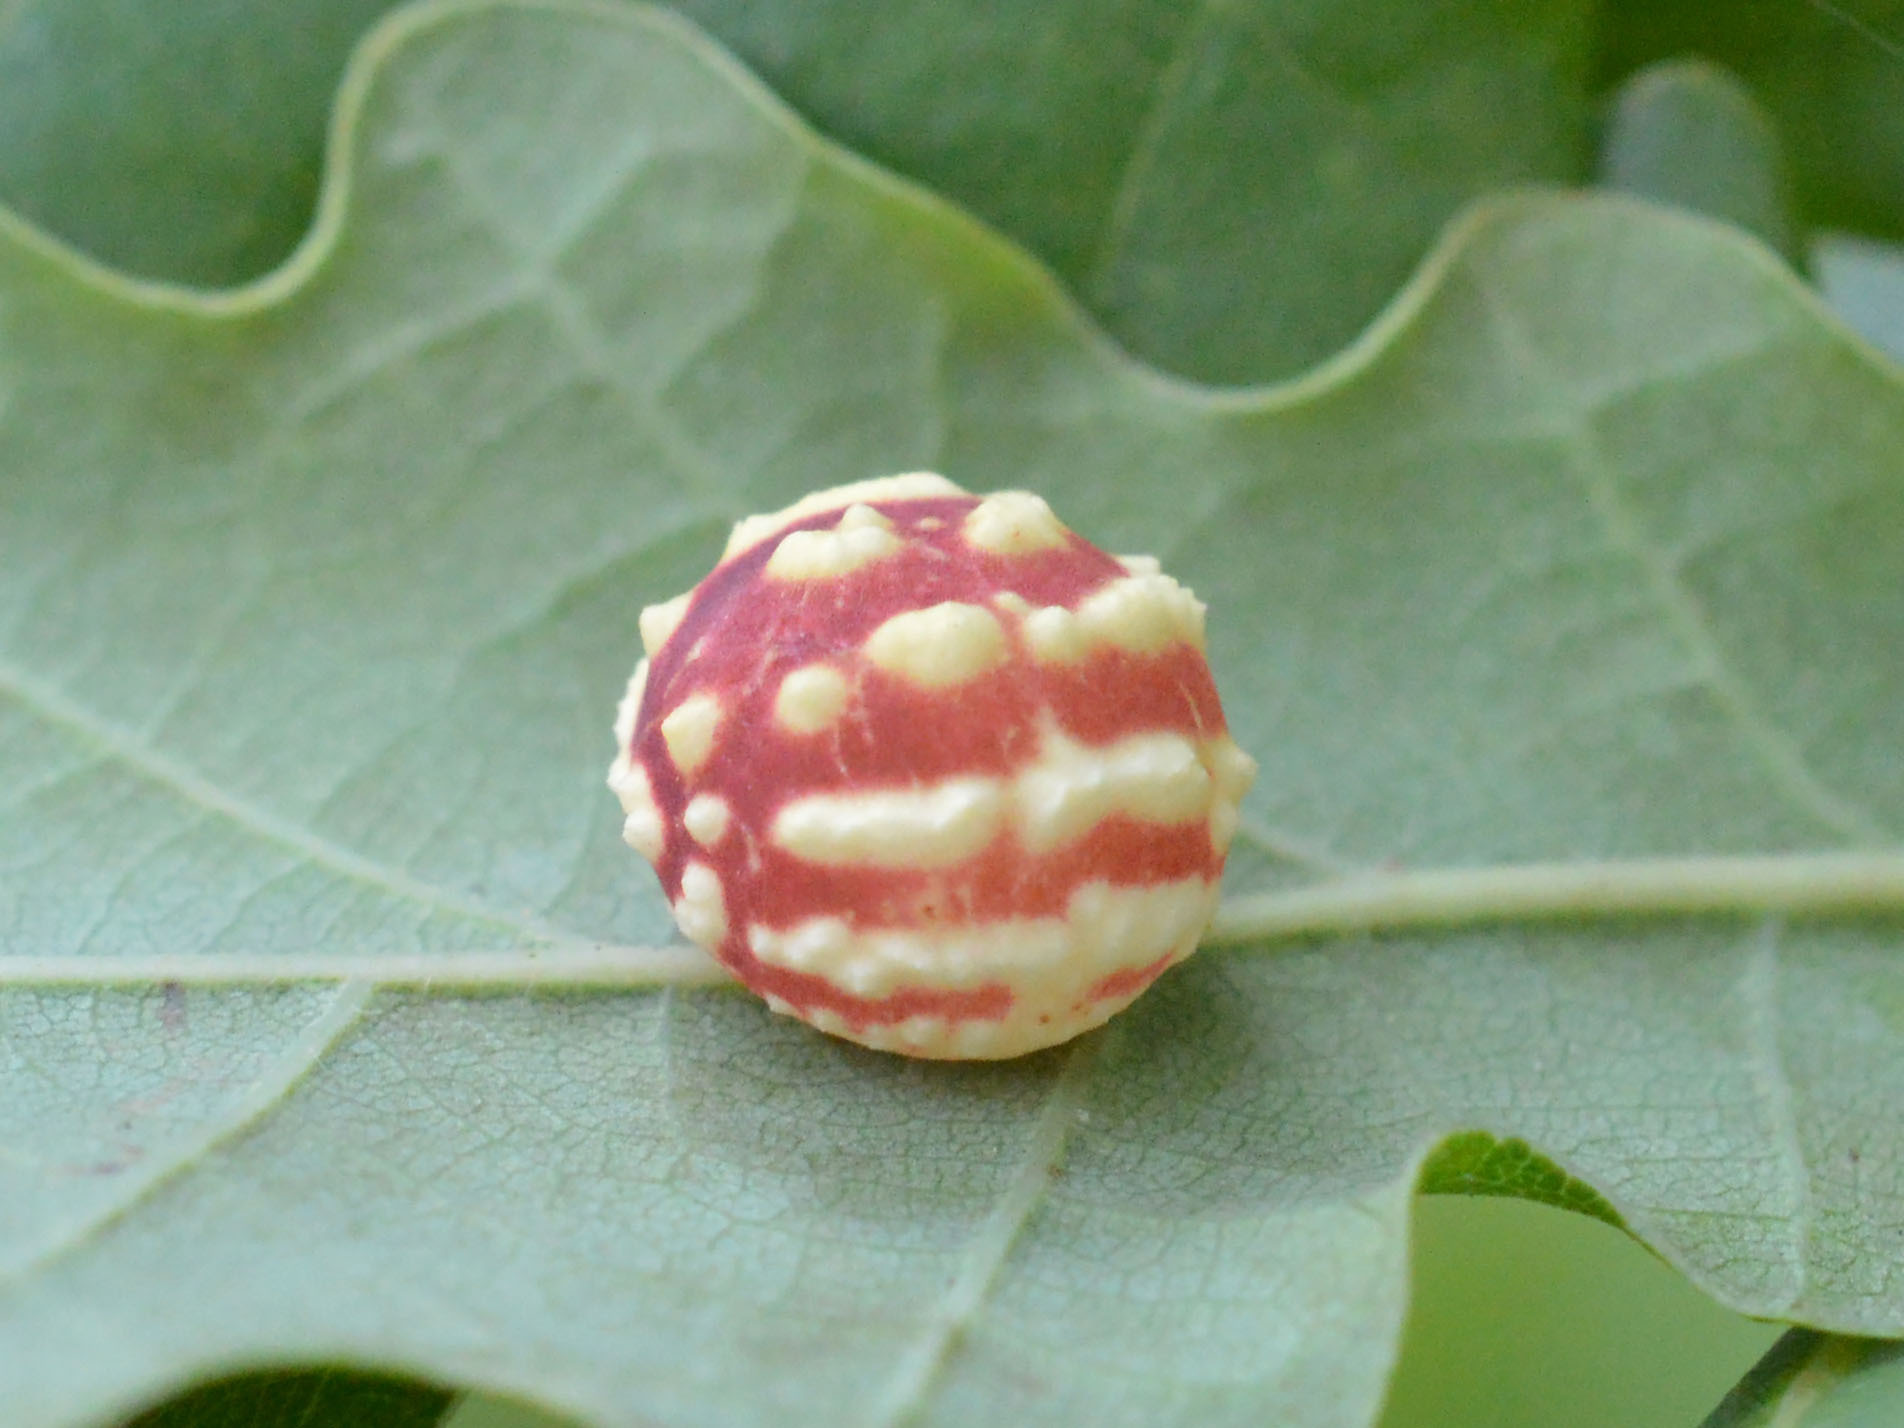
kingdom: Animalia
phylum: Arthropoda
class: Insecta
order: Hymenoptera
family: Cynipidae
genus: Cynips
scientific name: Cynips longiventris
